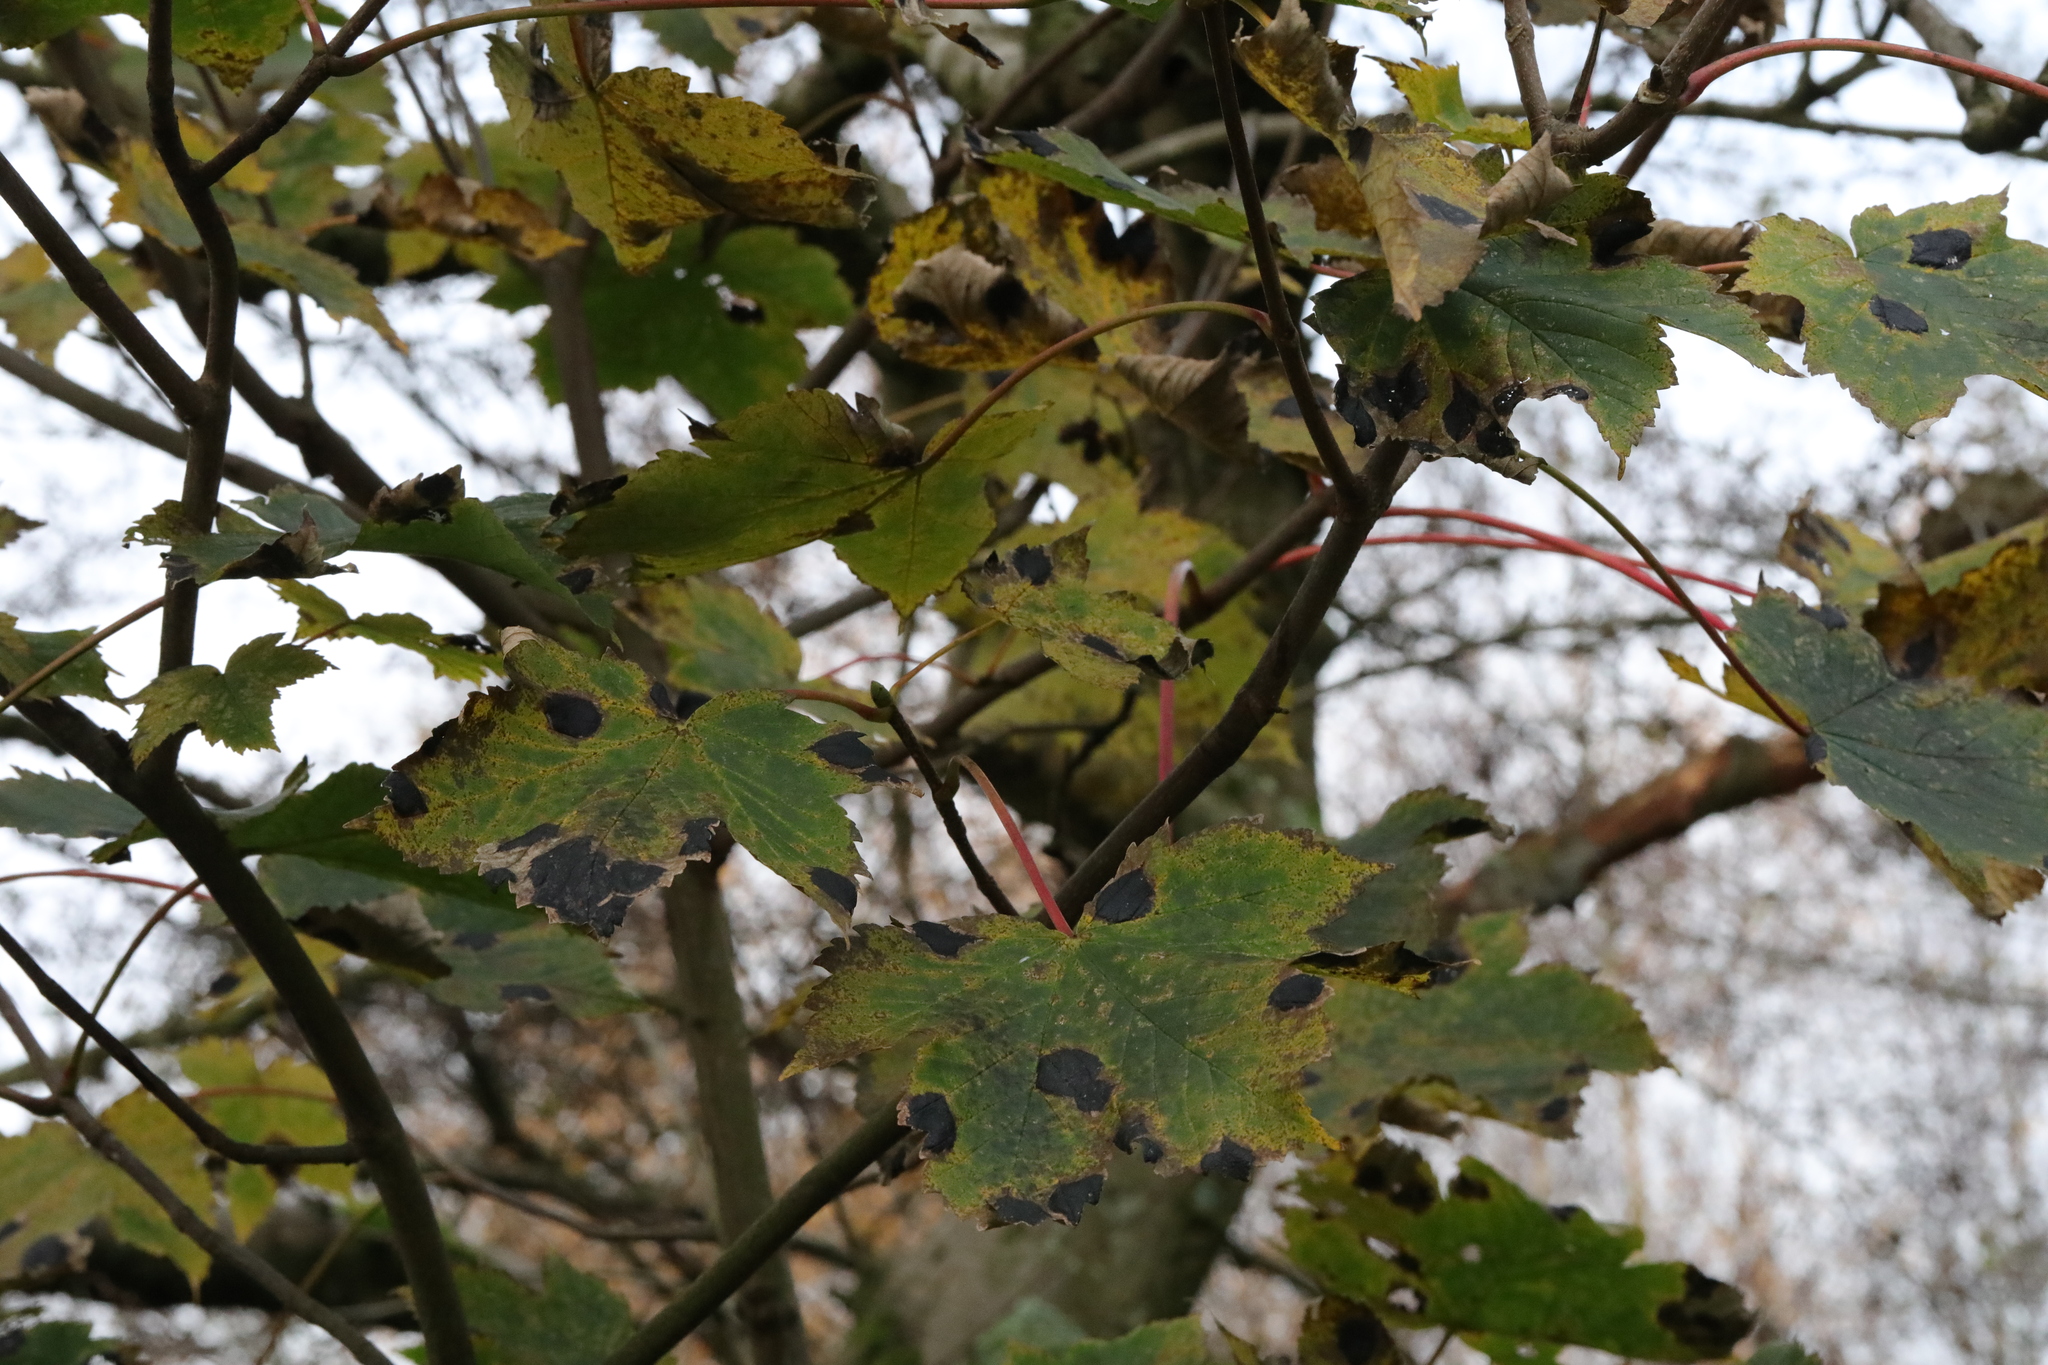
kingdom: Plantae
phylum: Tracheophyta
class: Magnoliopsida
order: Sapindales
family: Sapindaceae
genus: Acer
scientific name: Acer pseudoplatanus
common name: Sycamore
